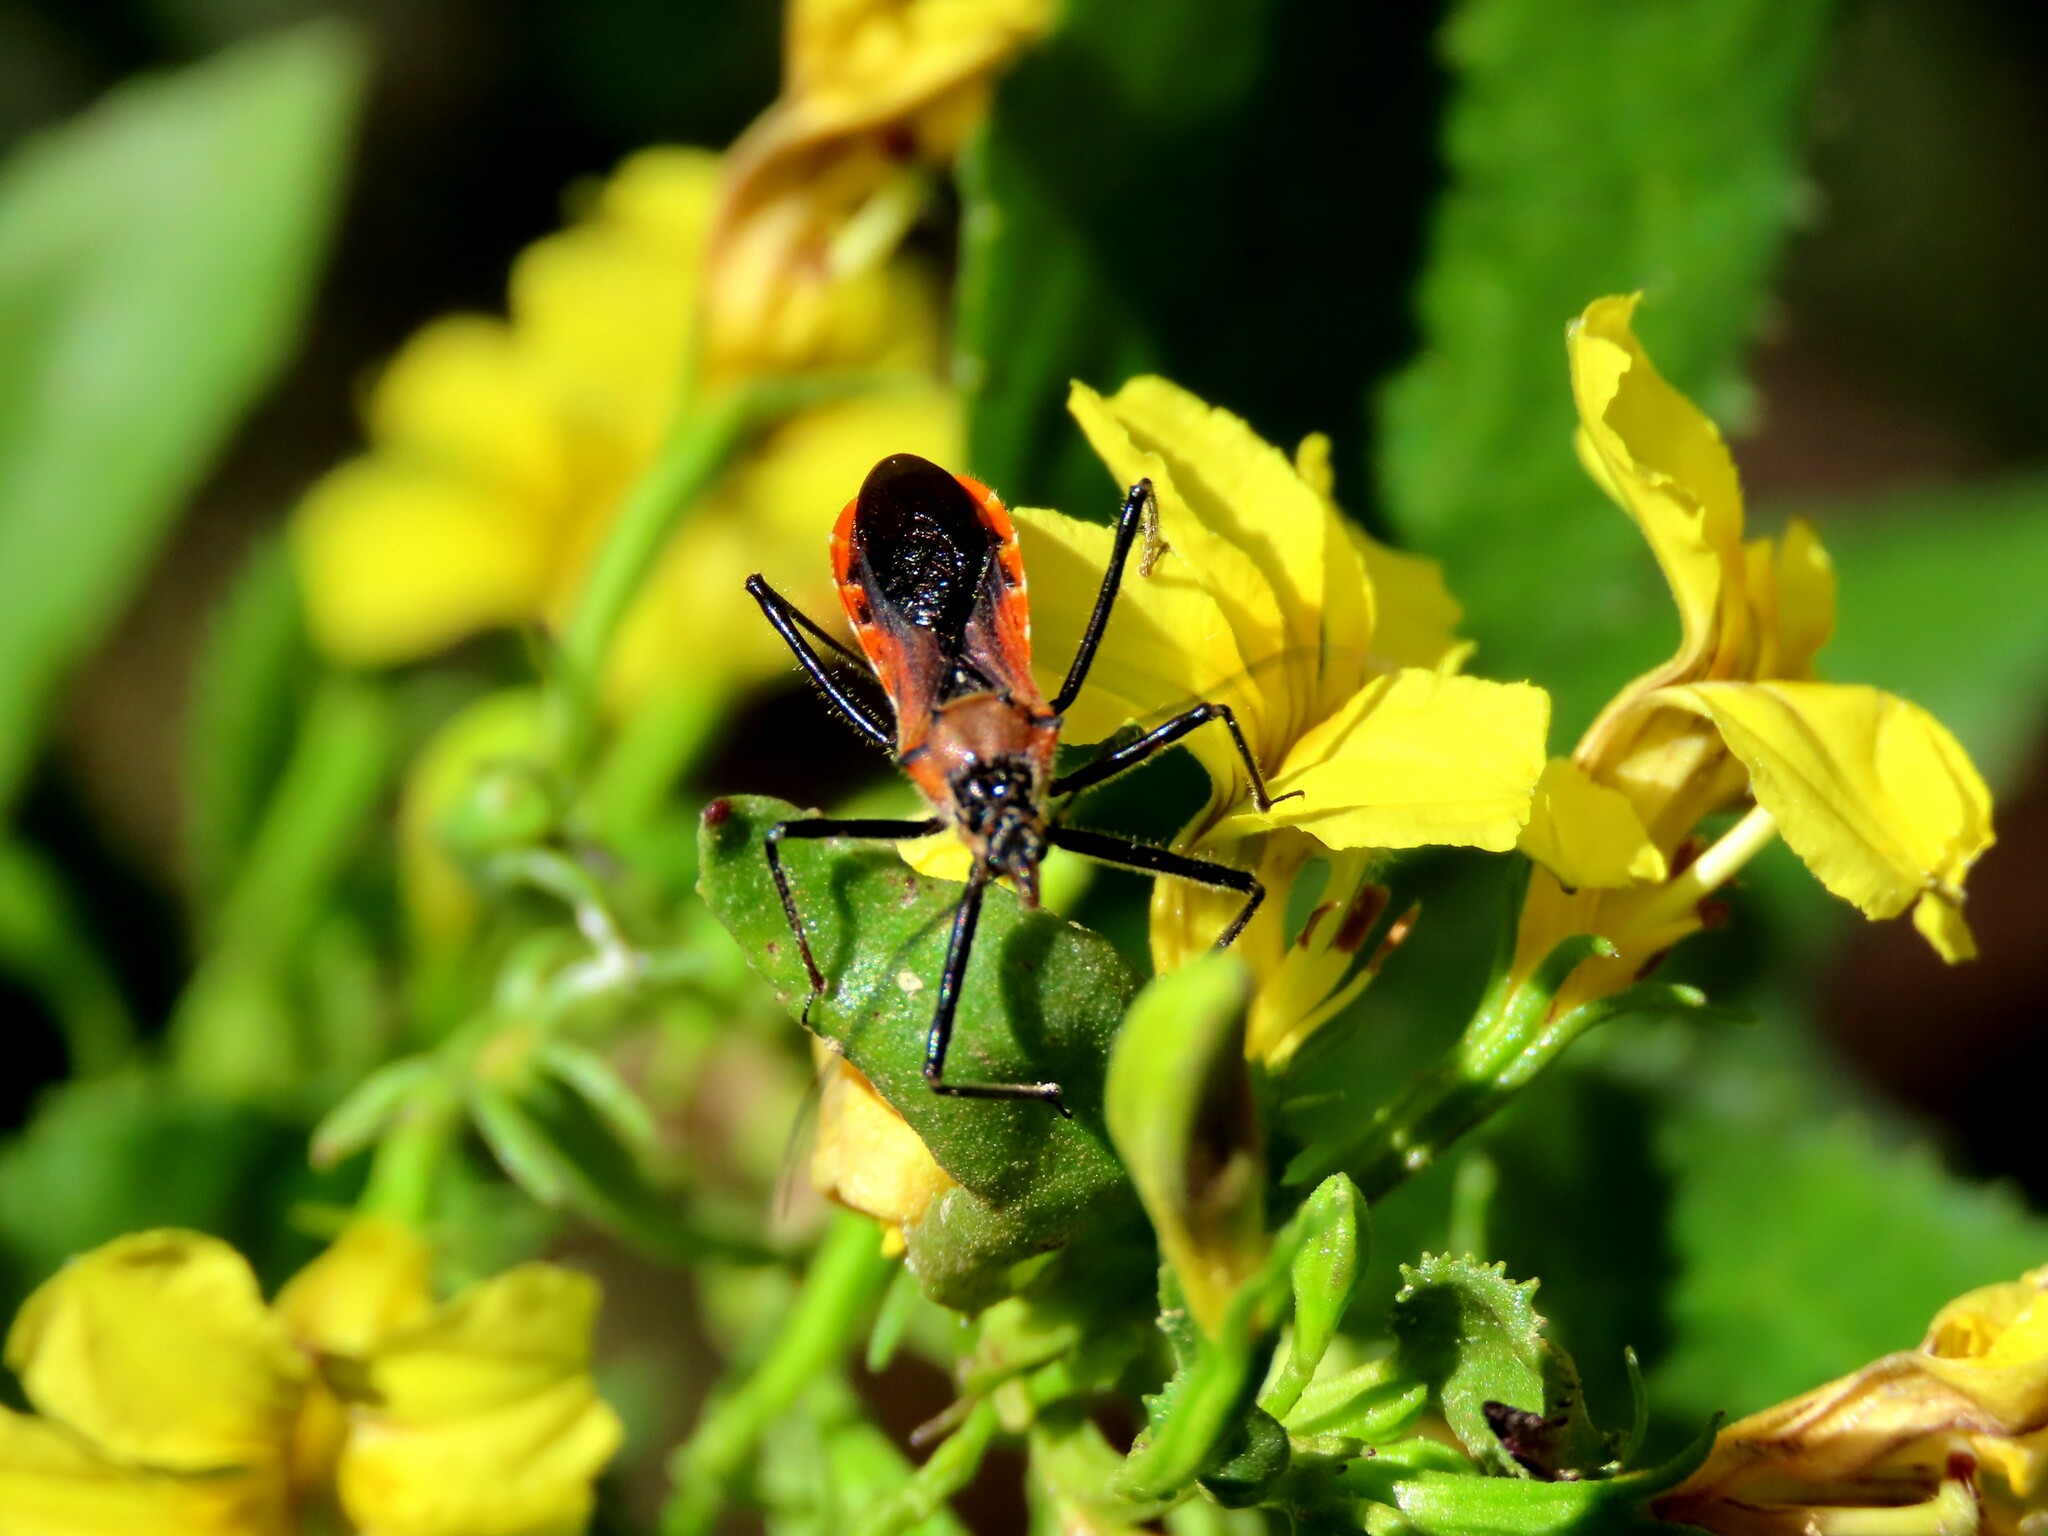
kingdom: Animalia
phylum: Arthropoda
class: Insecta
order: Hemiptera
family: Reduviidae
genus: Gminatus
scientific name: Gminatus australis
